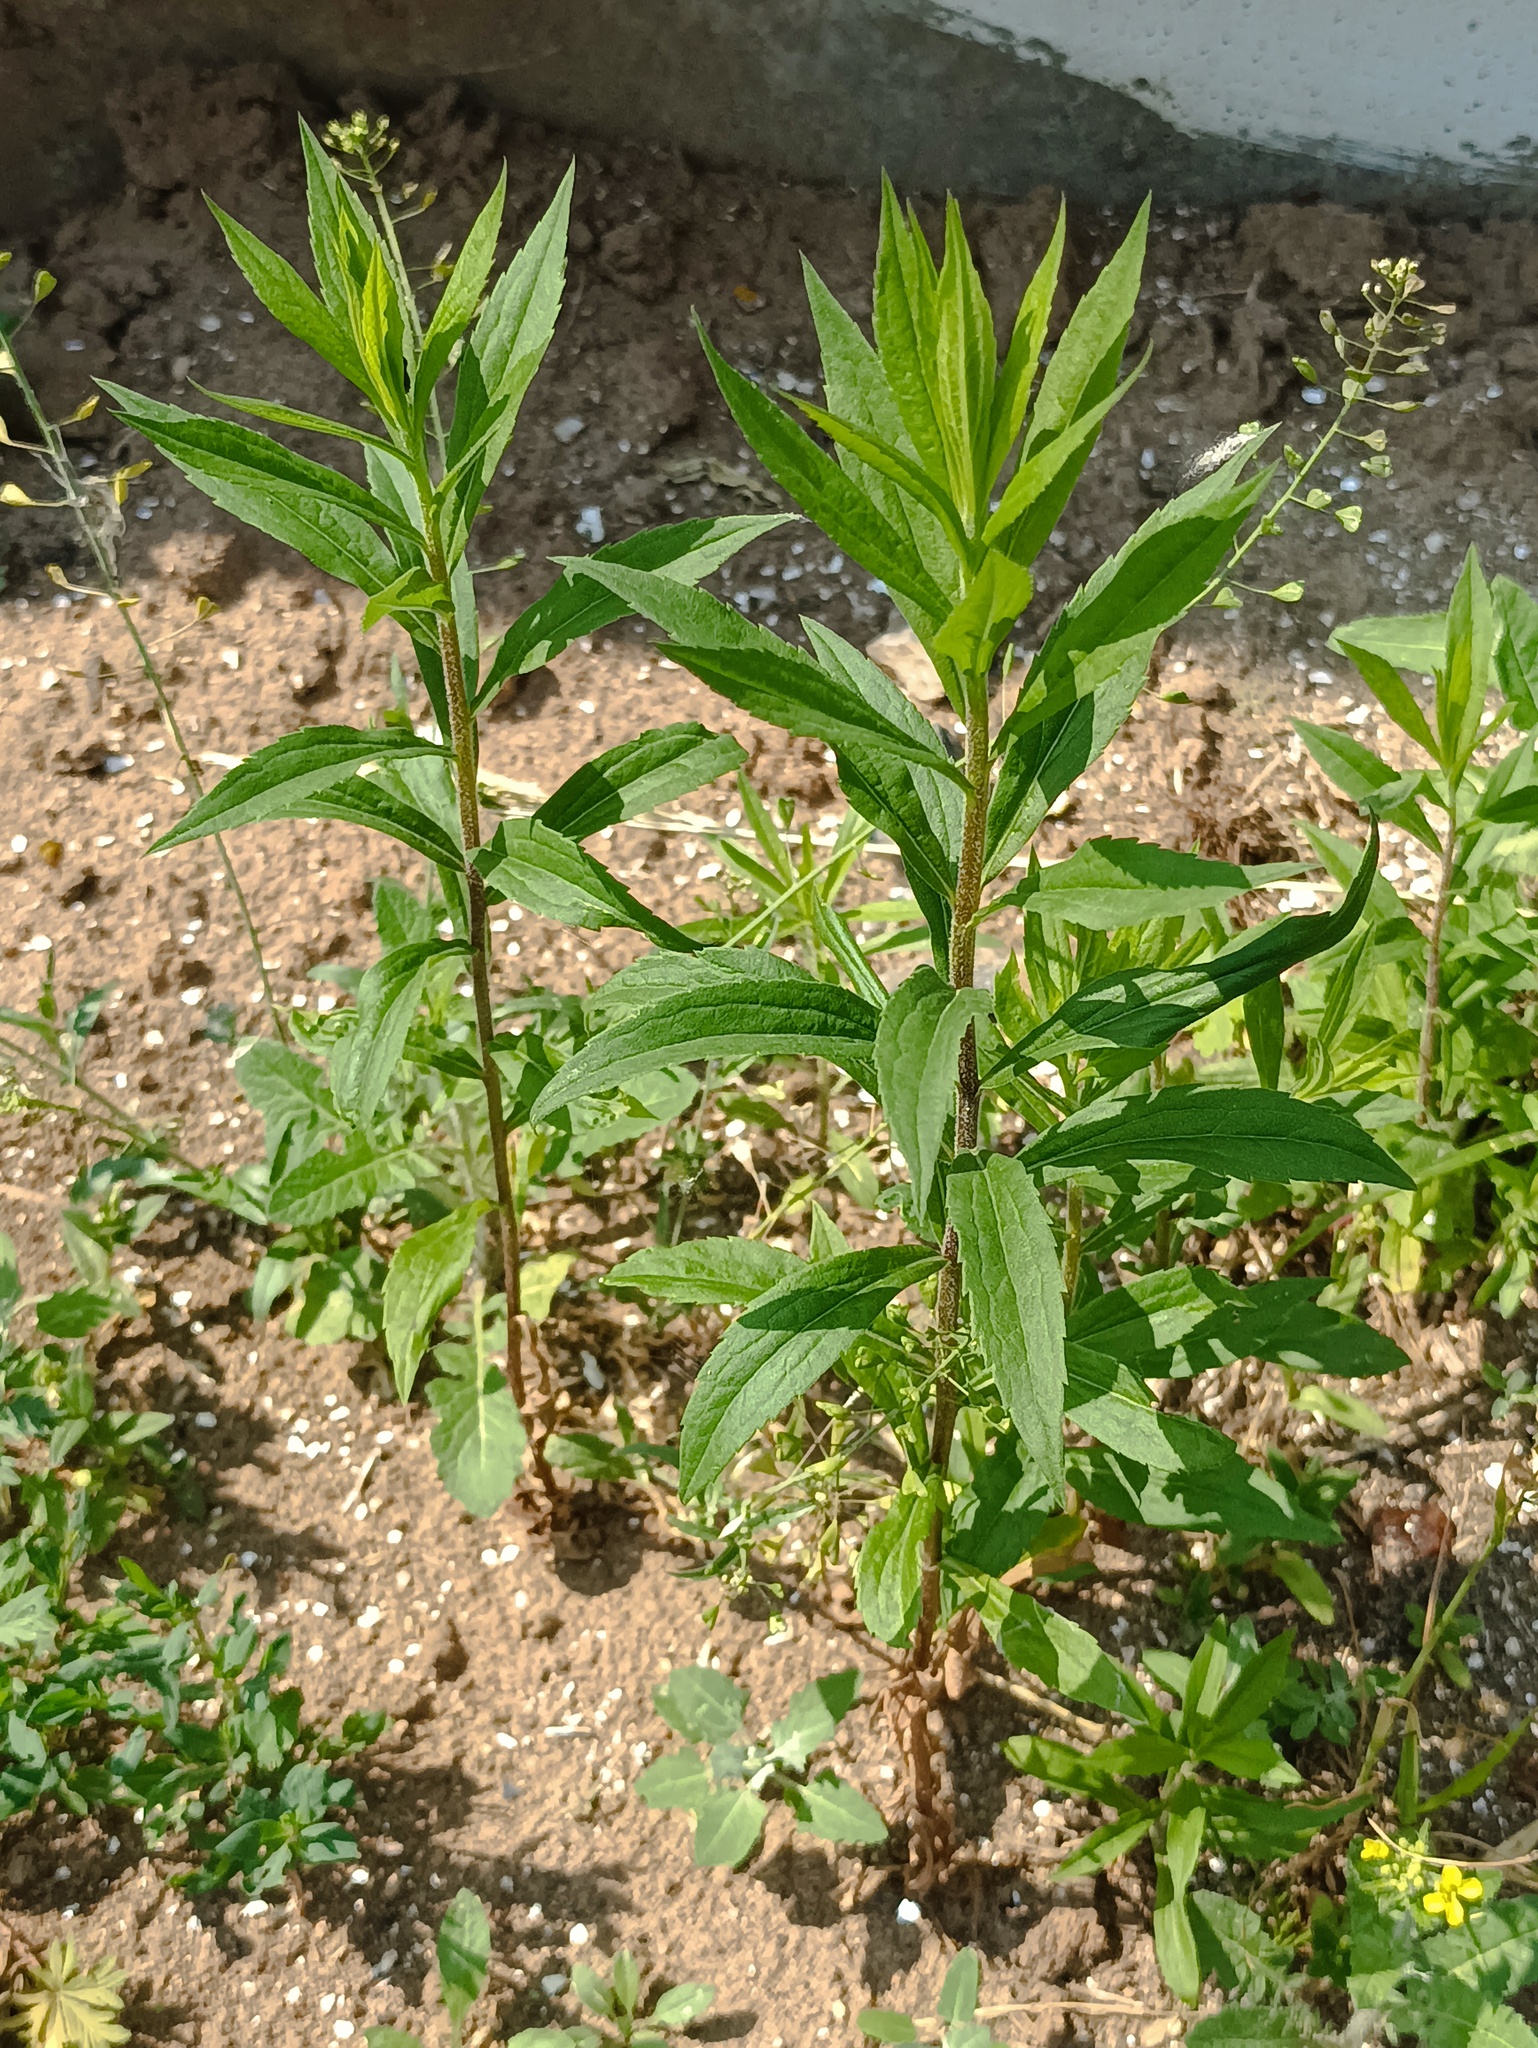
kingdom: Plantae
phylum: Tracheophyta
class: Magnoliopsida
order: Asterales
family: Asteraceae
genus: Solidago
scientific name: Solidago canadensis
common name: Canada goldenrod
